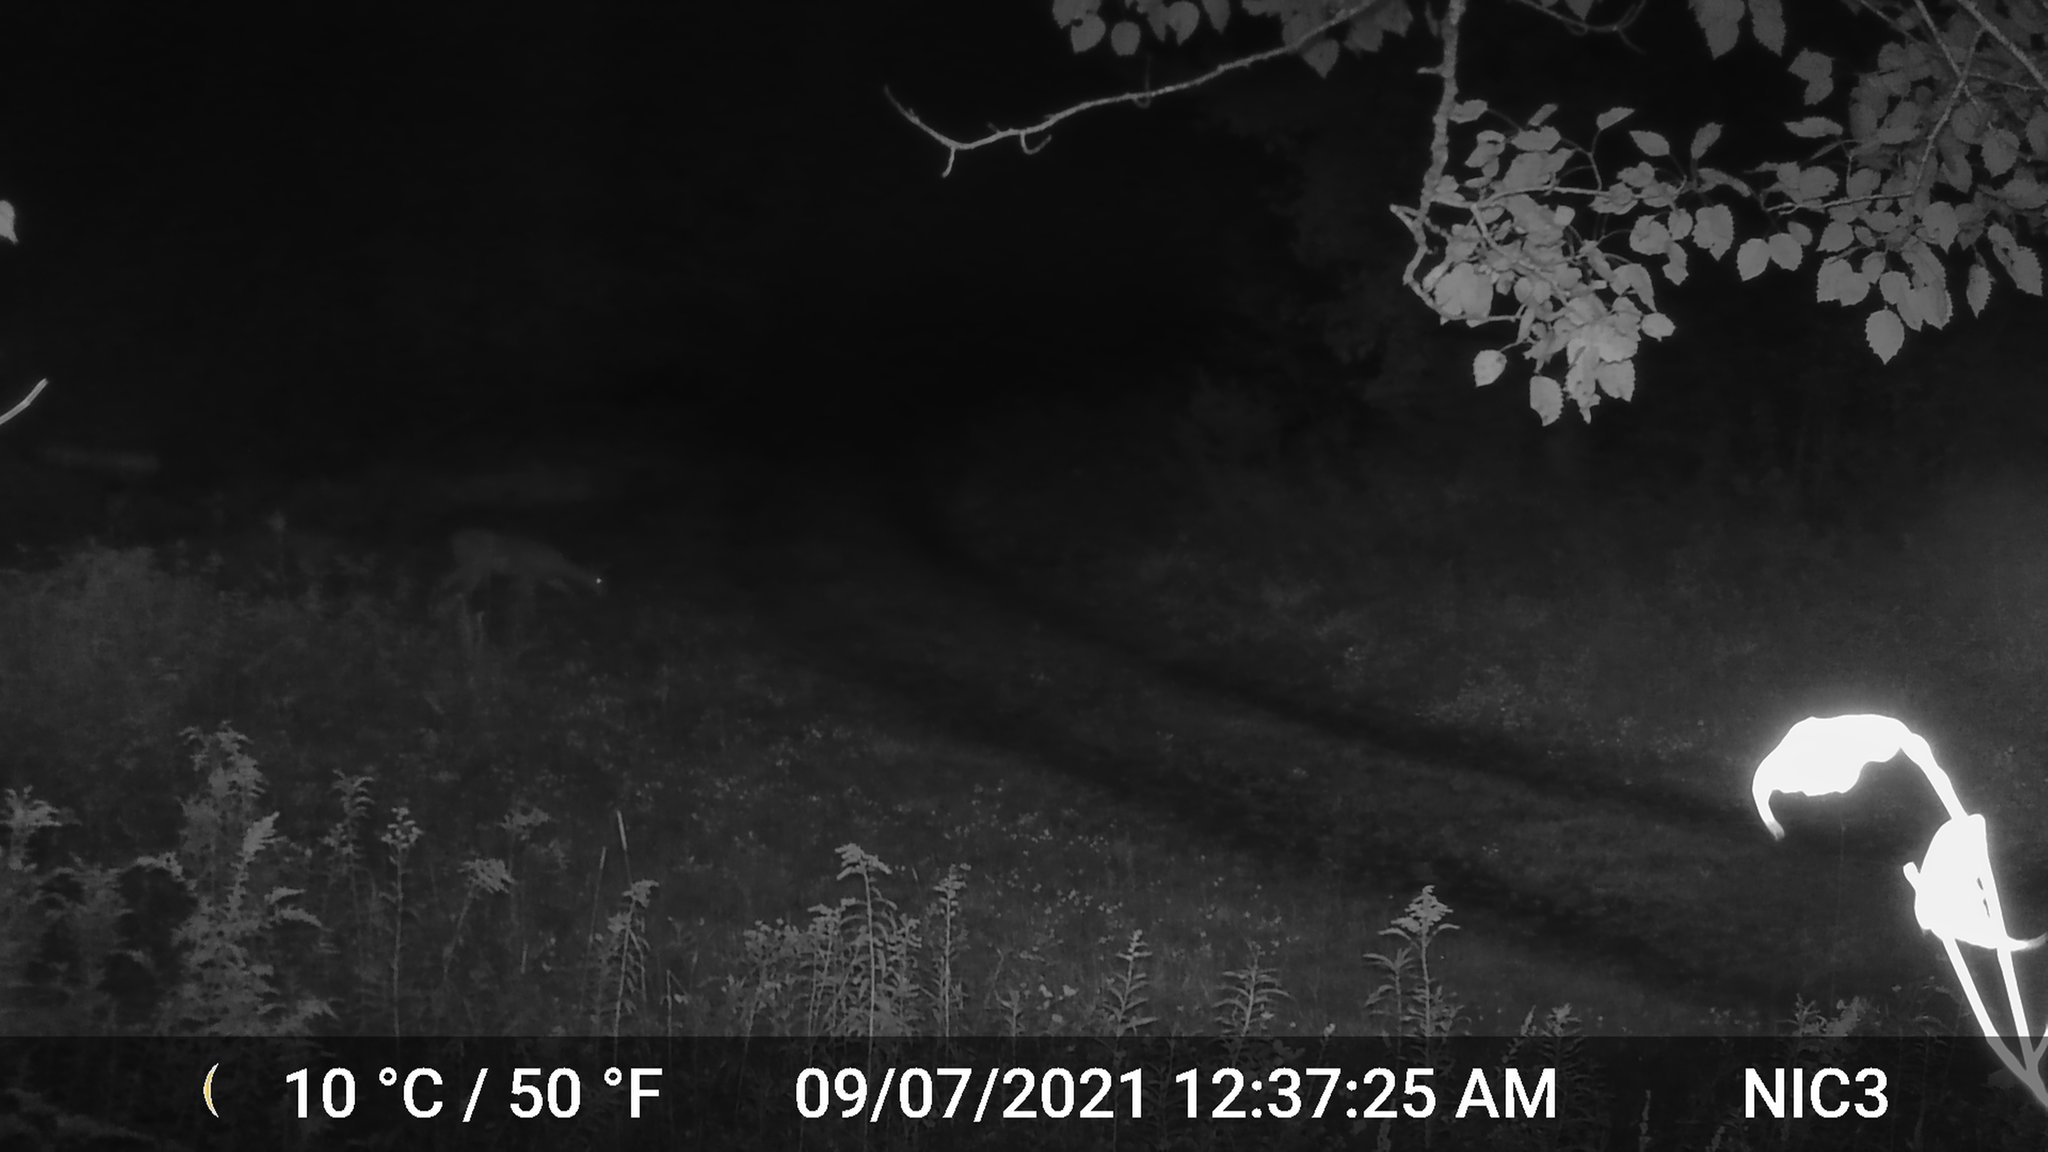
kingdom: Animalia
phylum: Chordata
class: Mammalia
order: Artiodactyla
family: Cervidae
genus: Odocoileus
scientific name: Odocoileus virginianus
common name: White-tailed deer
